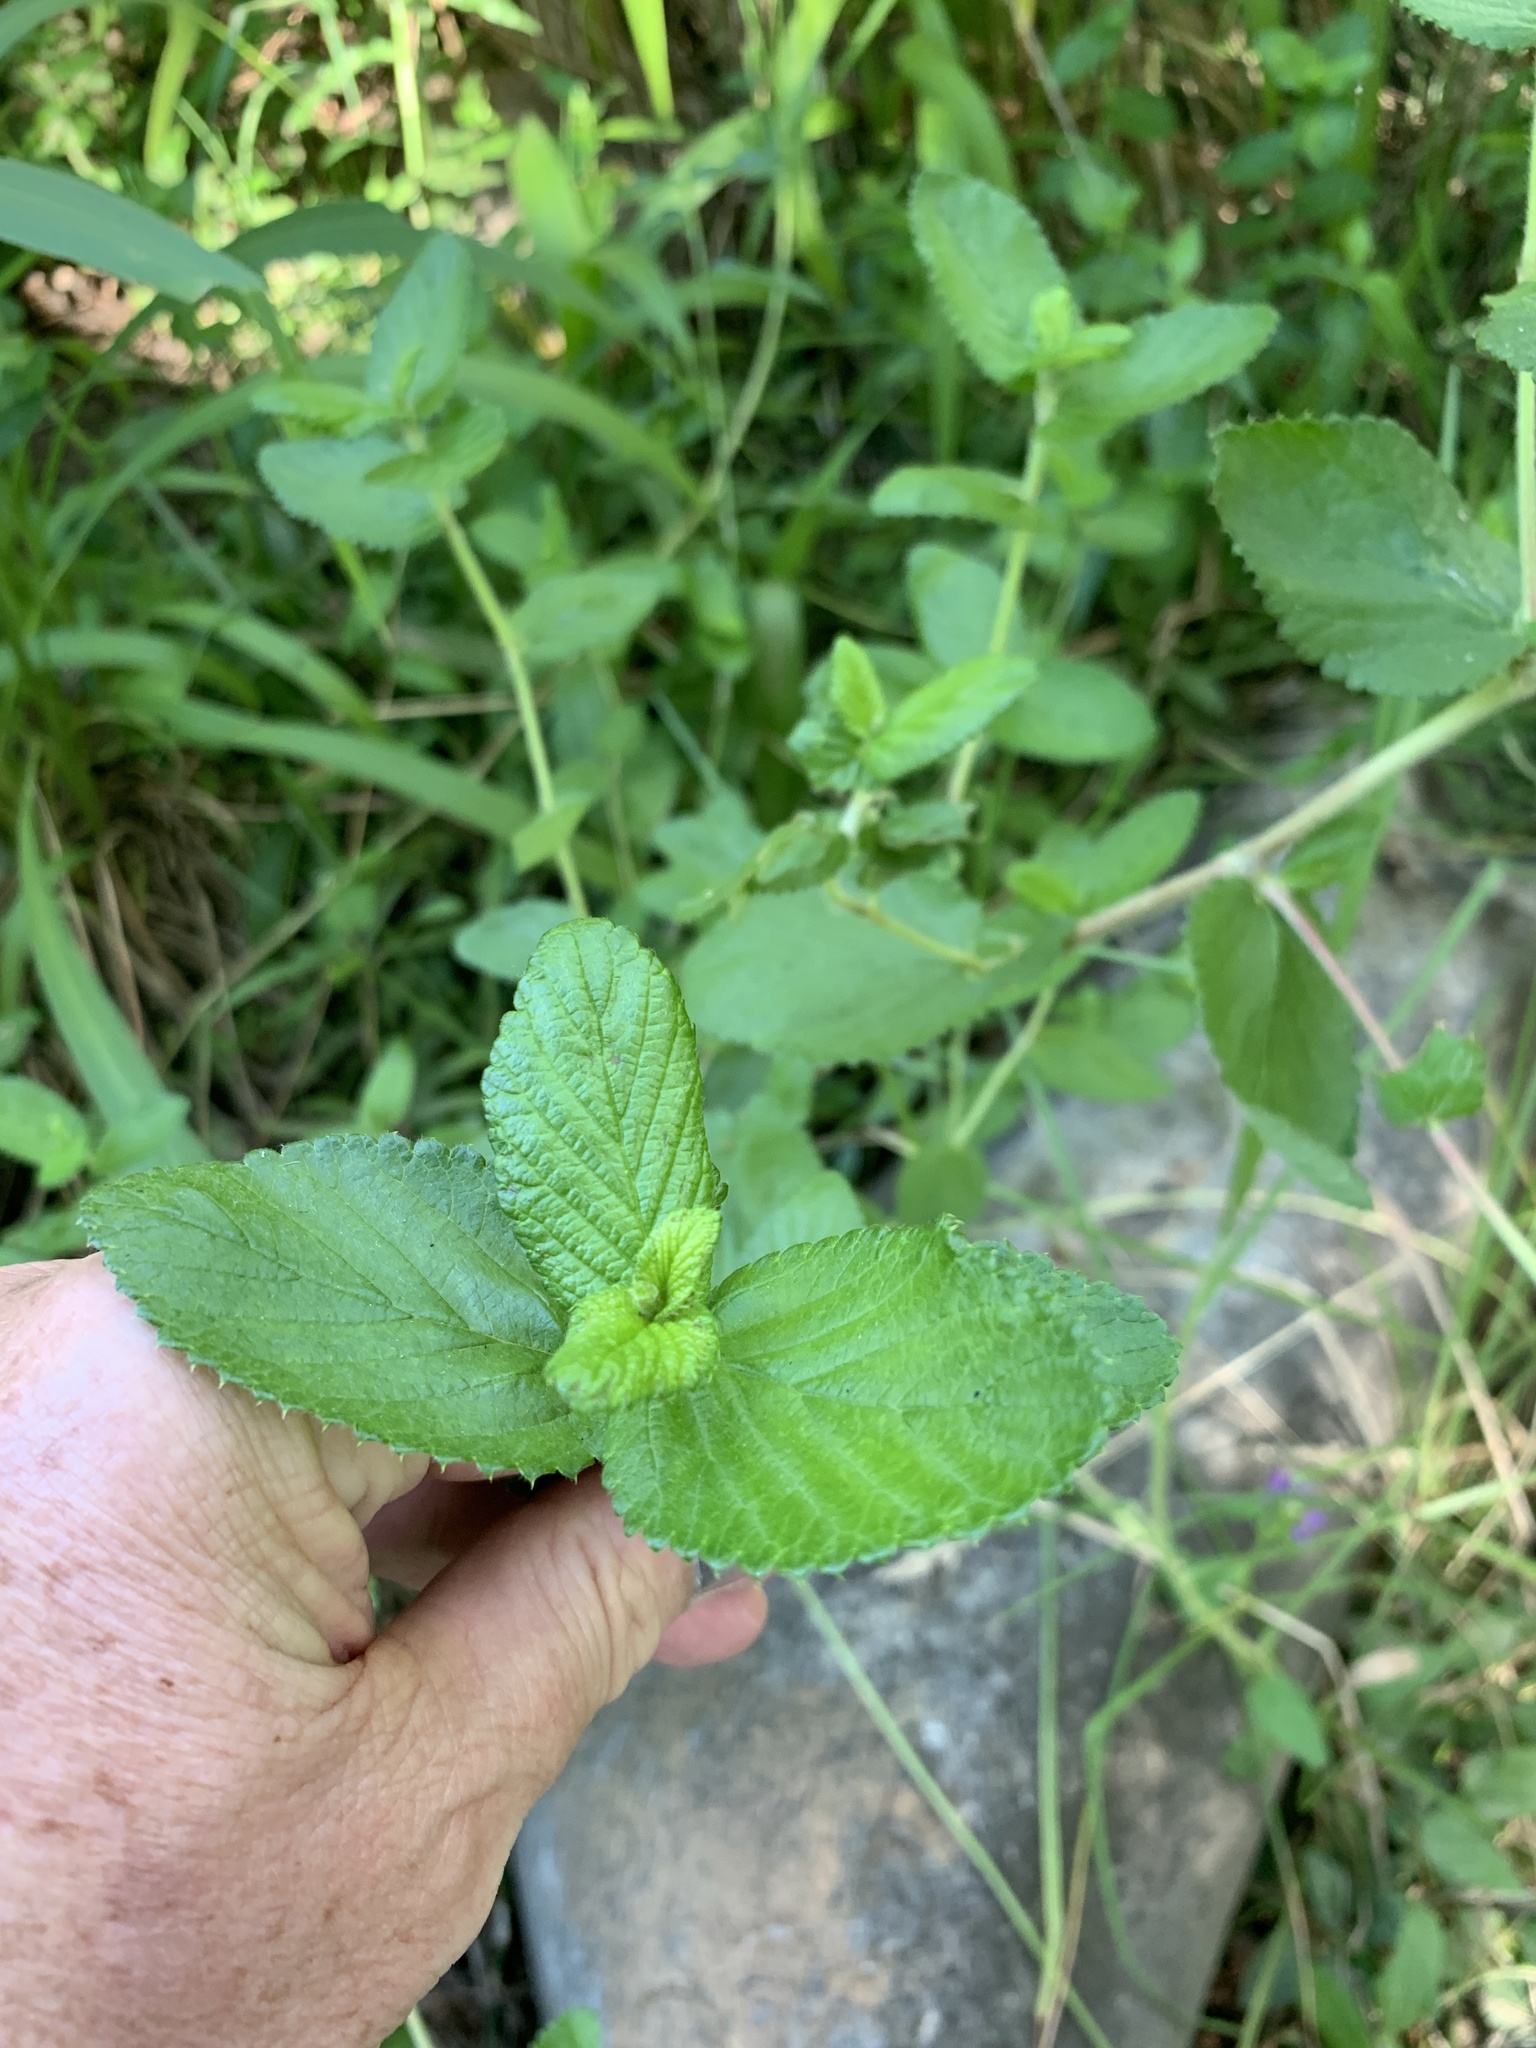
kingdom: Plantae
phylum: Tracheophyta
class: Magnoliopsida
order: Rosales
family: Rosaceae
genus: Cliffortia
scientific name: Cliffortia odorata
